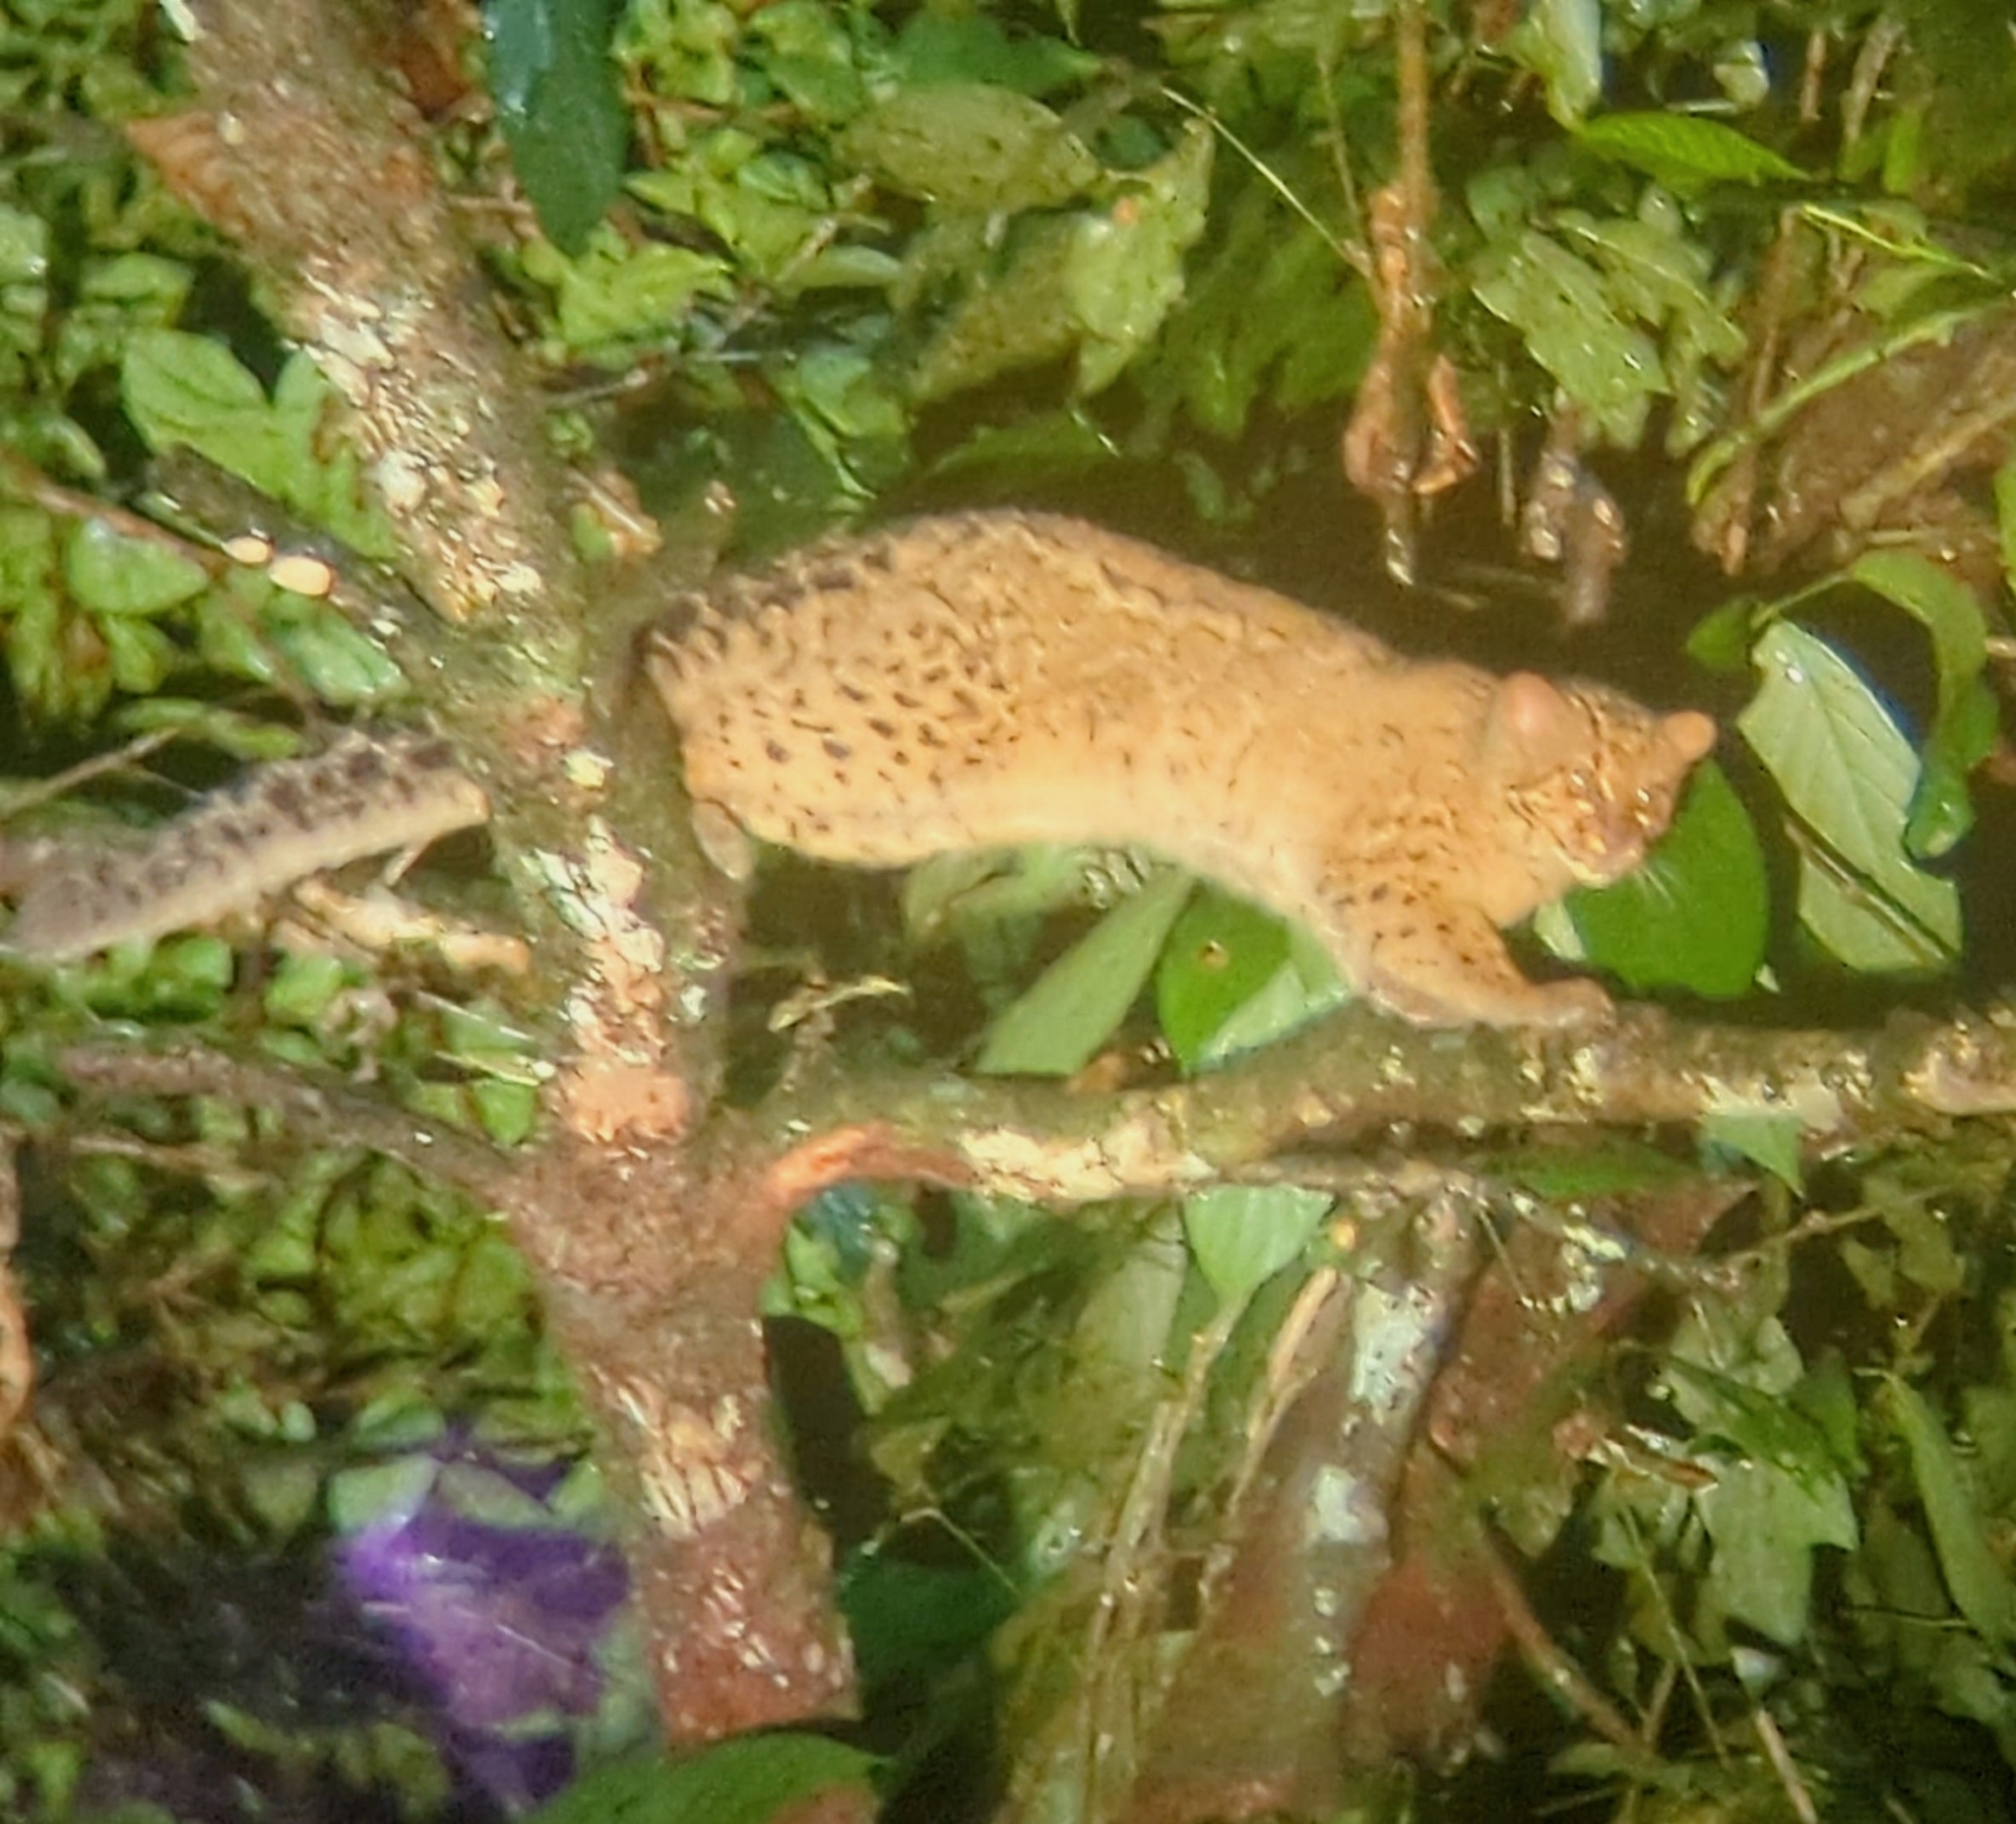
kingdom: Animalia
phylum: Chordata
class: Mammalia
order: Carnivora
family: Felidae
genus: Pardofelis
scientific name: Pardofelis marmorata
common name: Marbled cat
